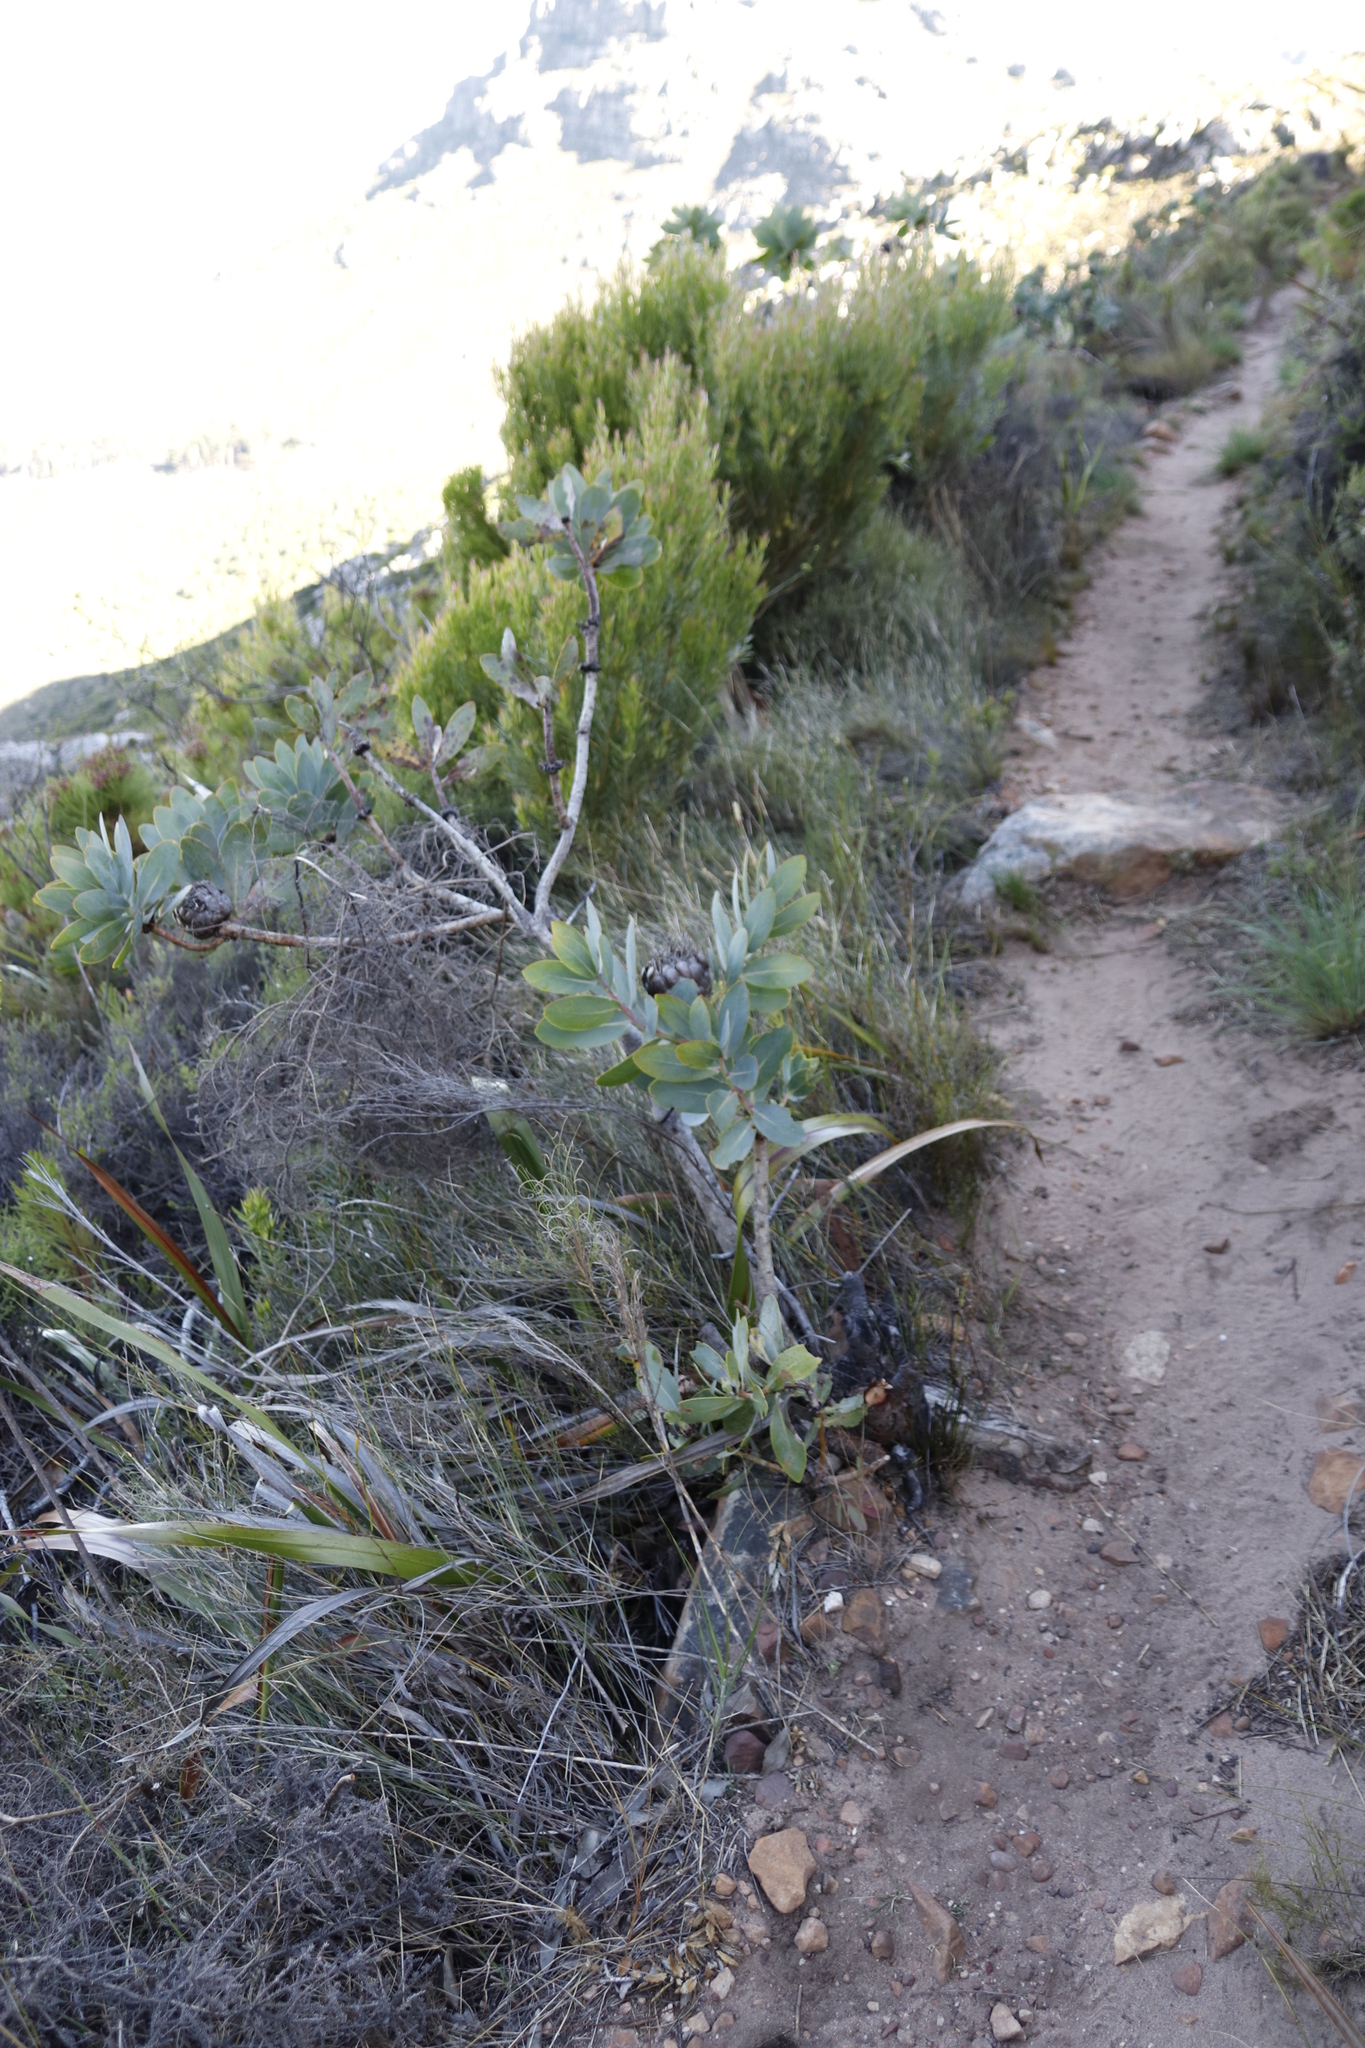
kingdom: Plantae
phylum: Tracheophyta
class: Magnoliopsida
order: Proteales
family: Proteaceae
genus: Protea
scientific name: Protea nitida
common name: Tree protea
